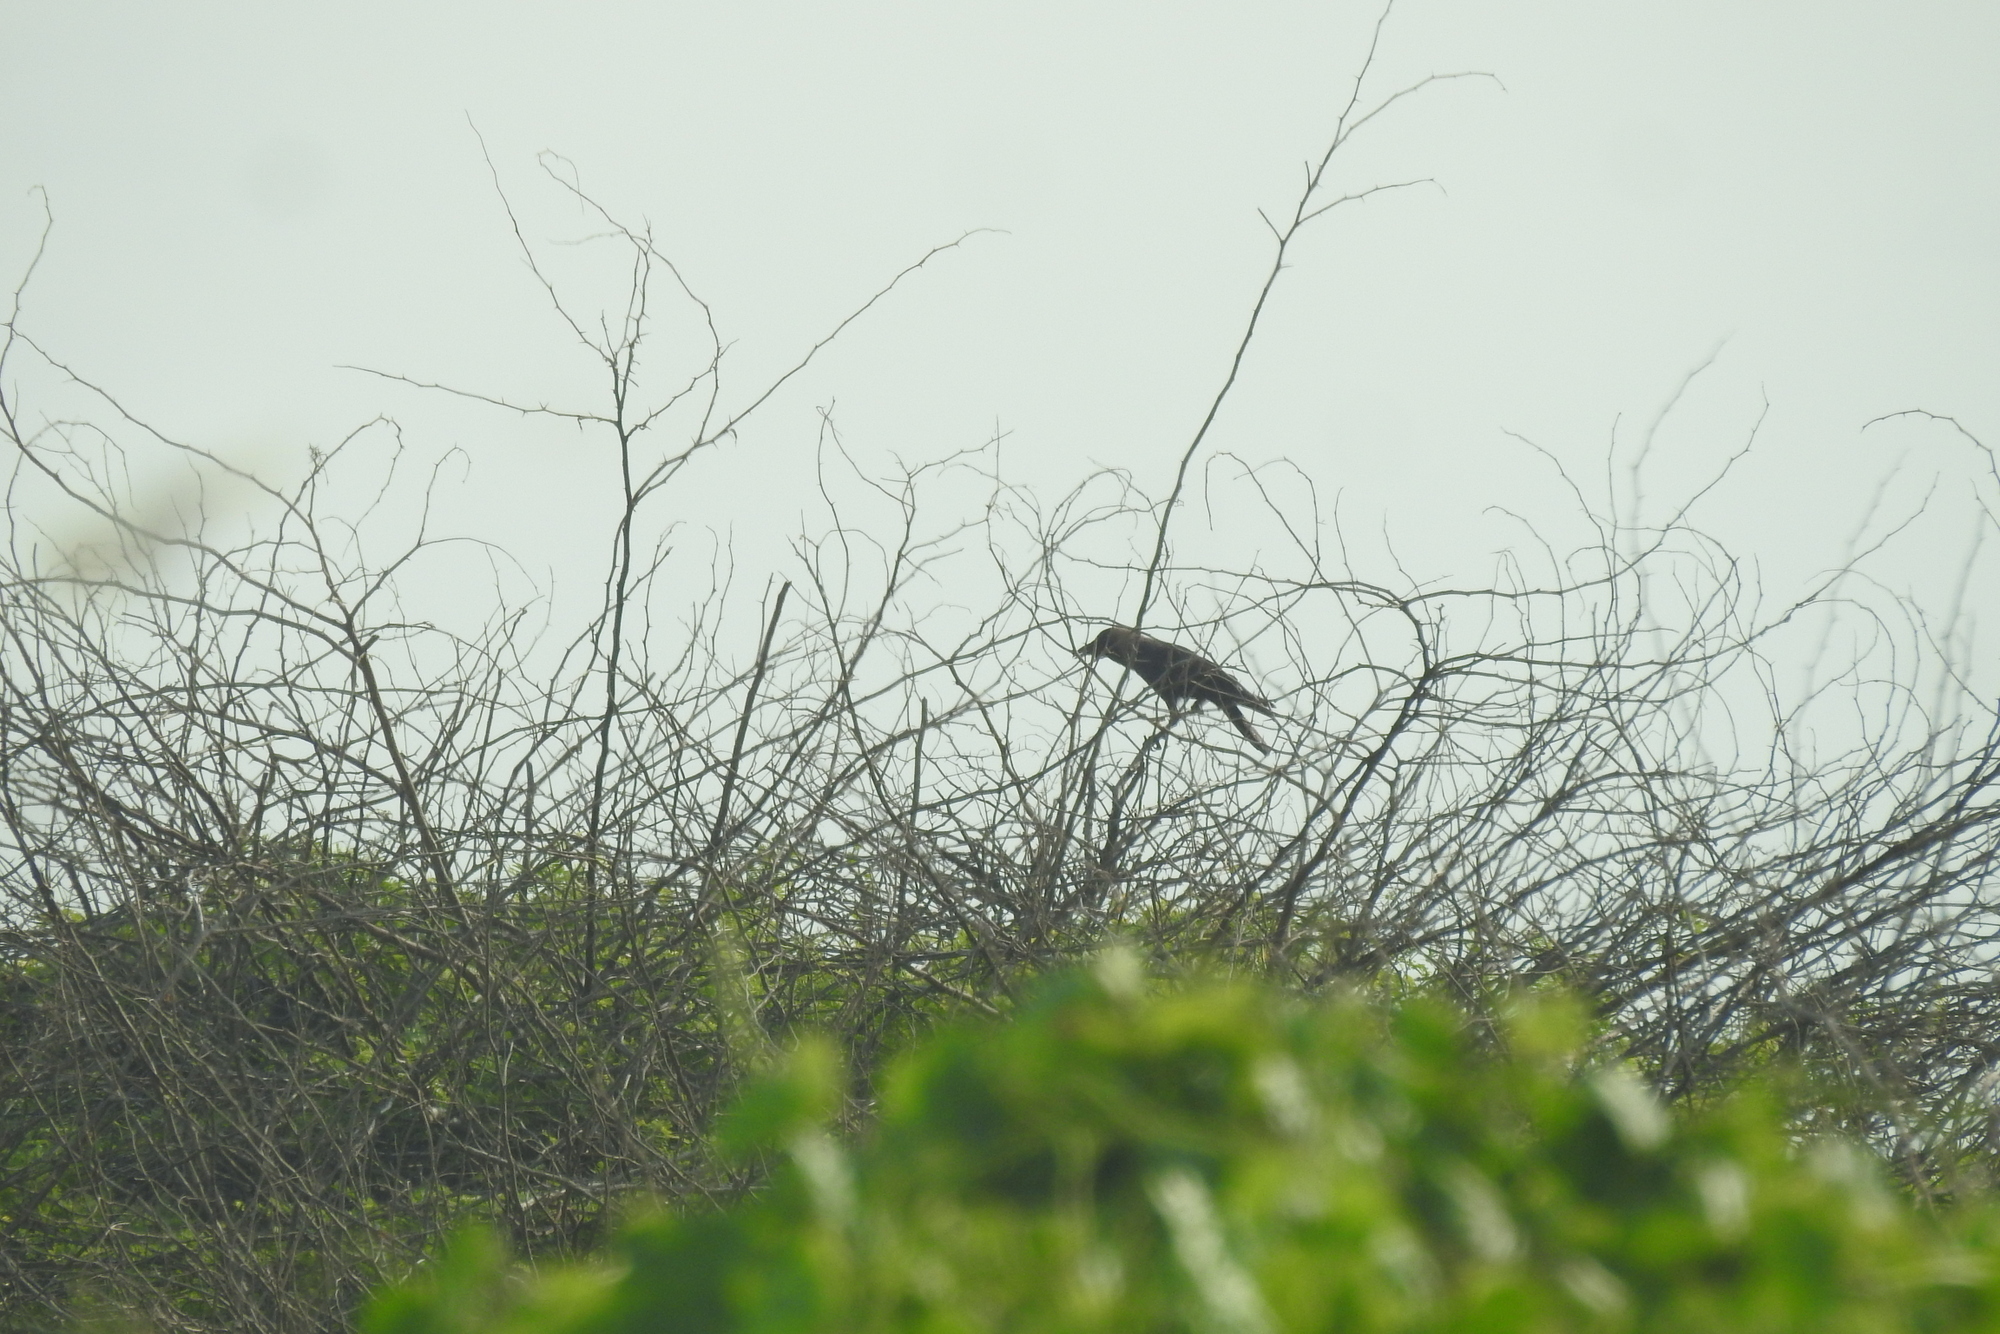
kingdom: Animalia
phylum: Chordata
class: Aves
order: Passeriformes
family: Corvidae
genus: Corvus
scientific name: Corvus splendens
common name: House crow
